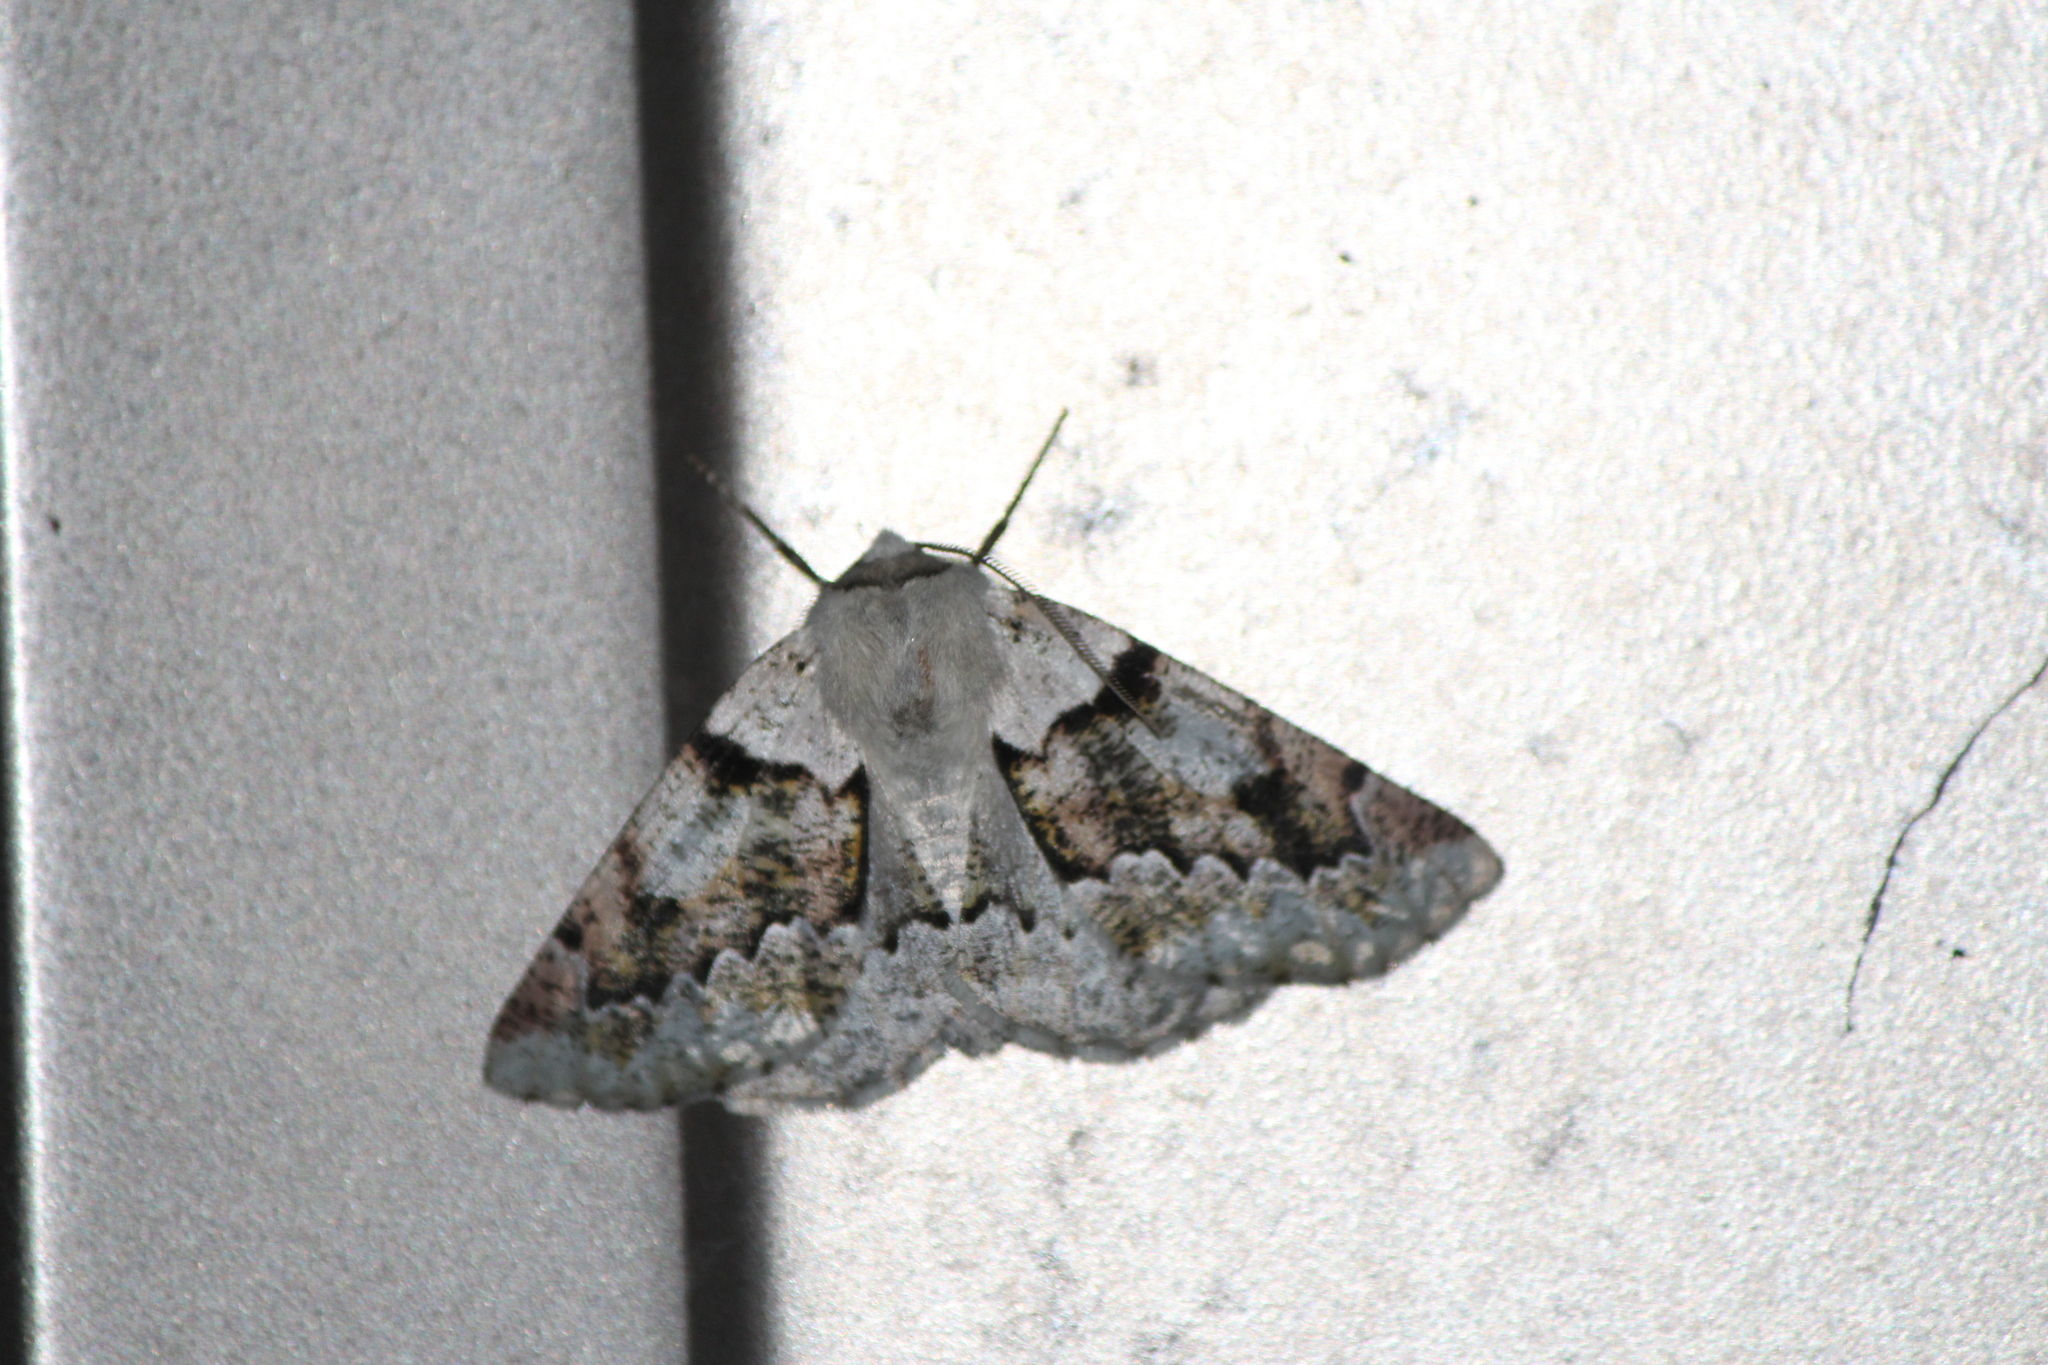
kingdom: Animalia
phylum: Arthropoda
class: Insecta
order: Lepidoptera
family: Geometridae
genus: Acronyctodes
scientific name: Acronyctodes mexicanaria
